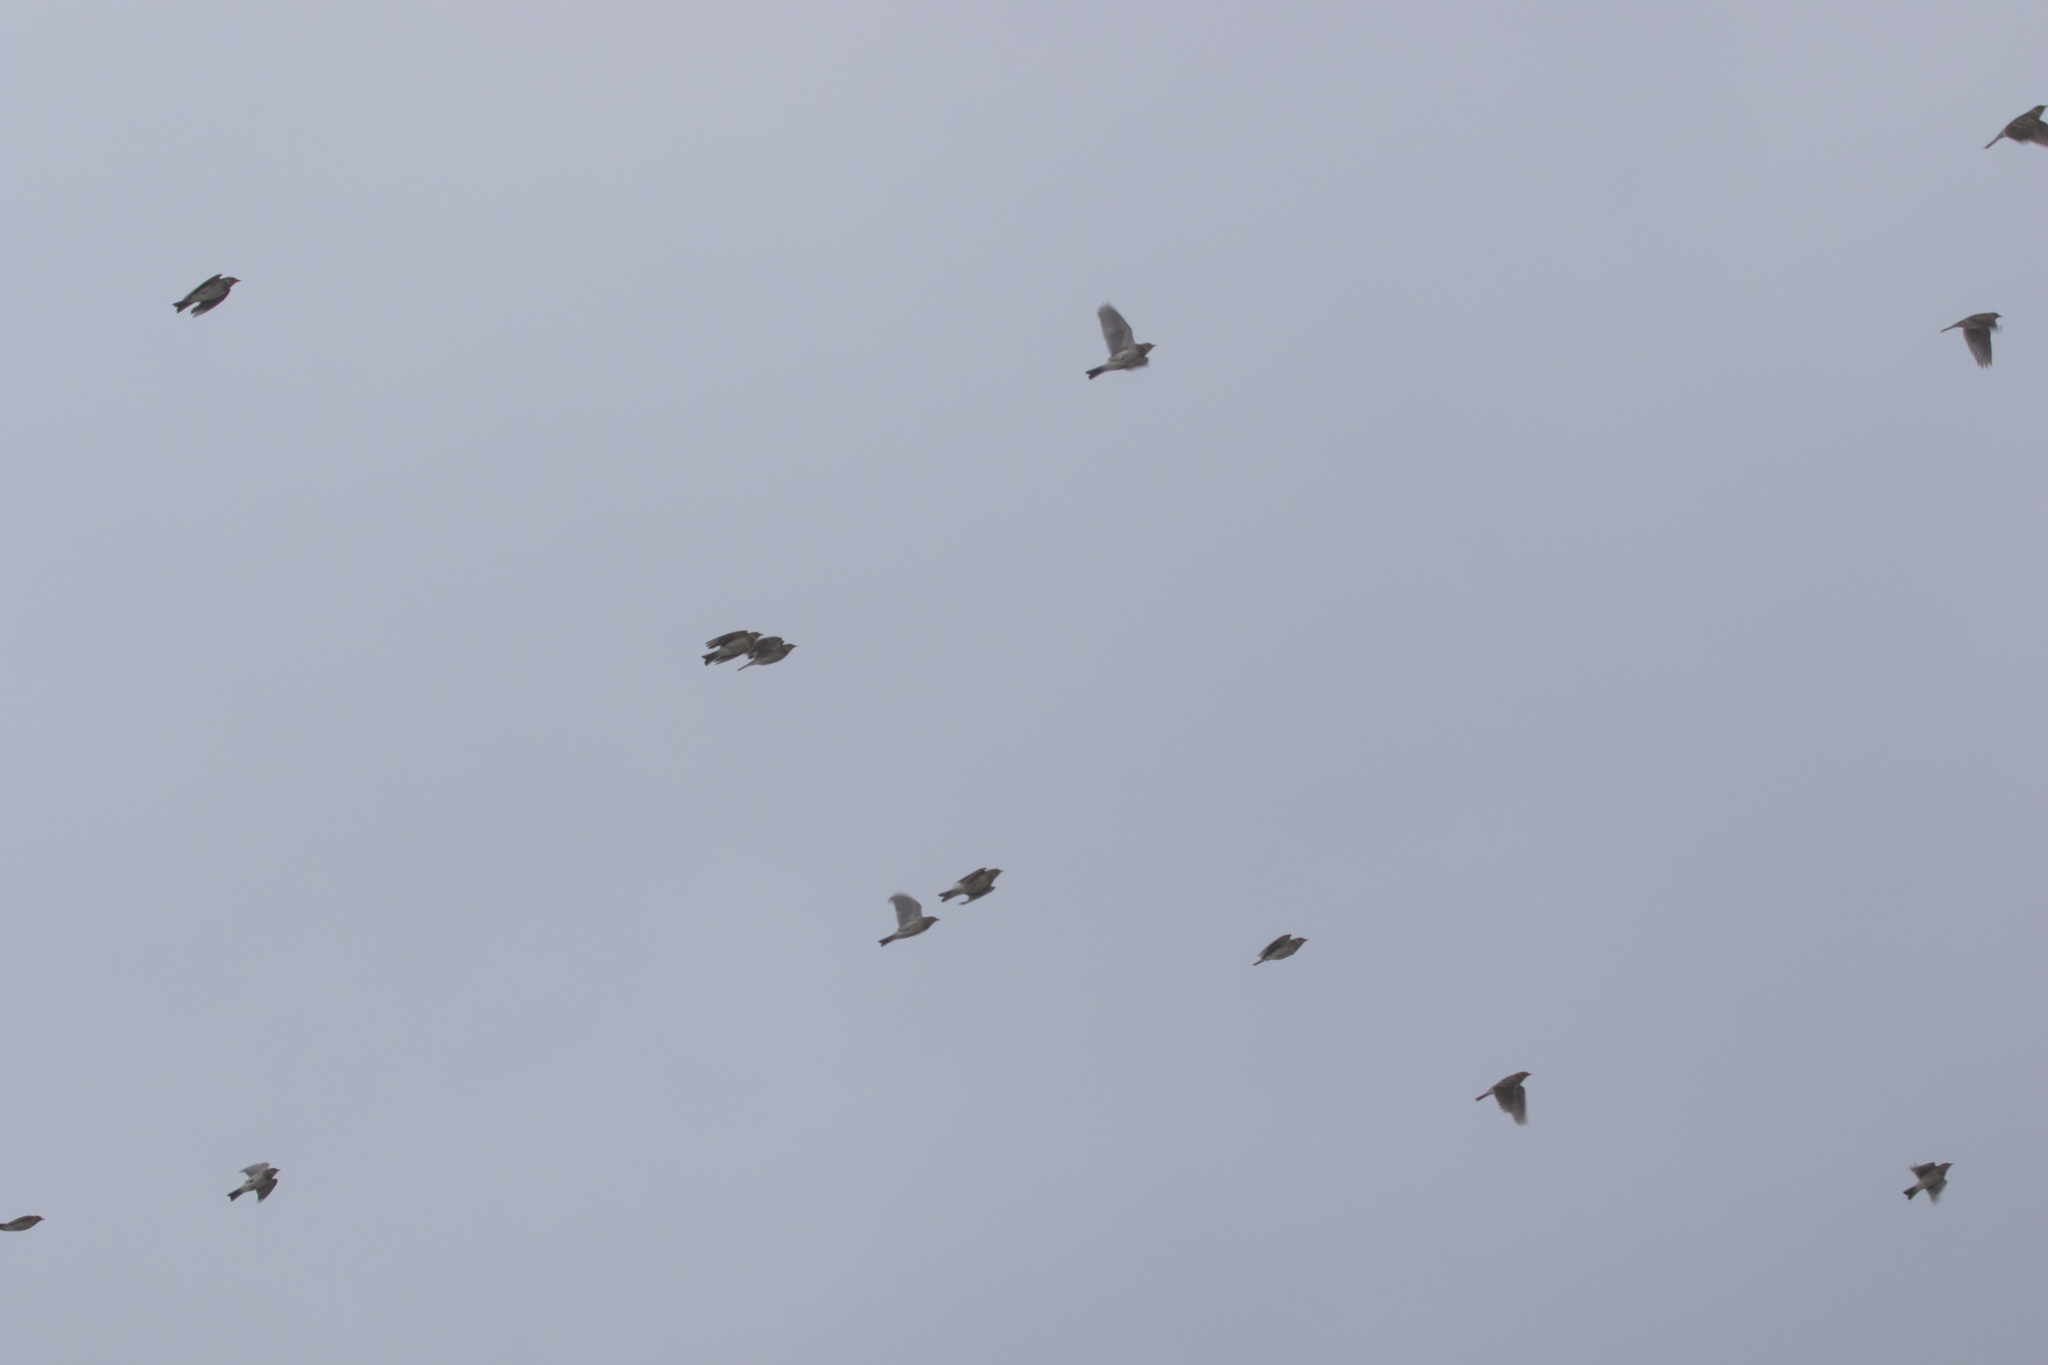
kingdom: Animalia
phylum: Chordata
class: Aves
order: Passeriformes
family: Alaudidae
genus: Alauda
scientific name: Alauda arvensis
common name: Eurasian skylark
